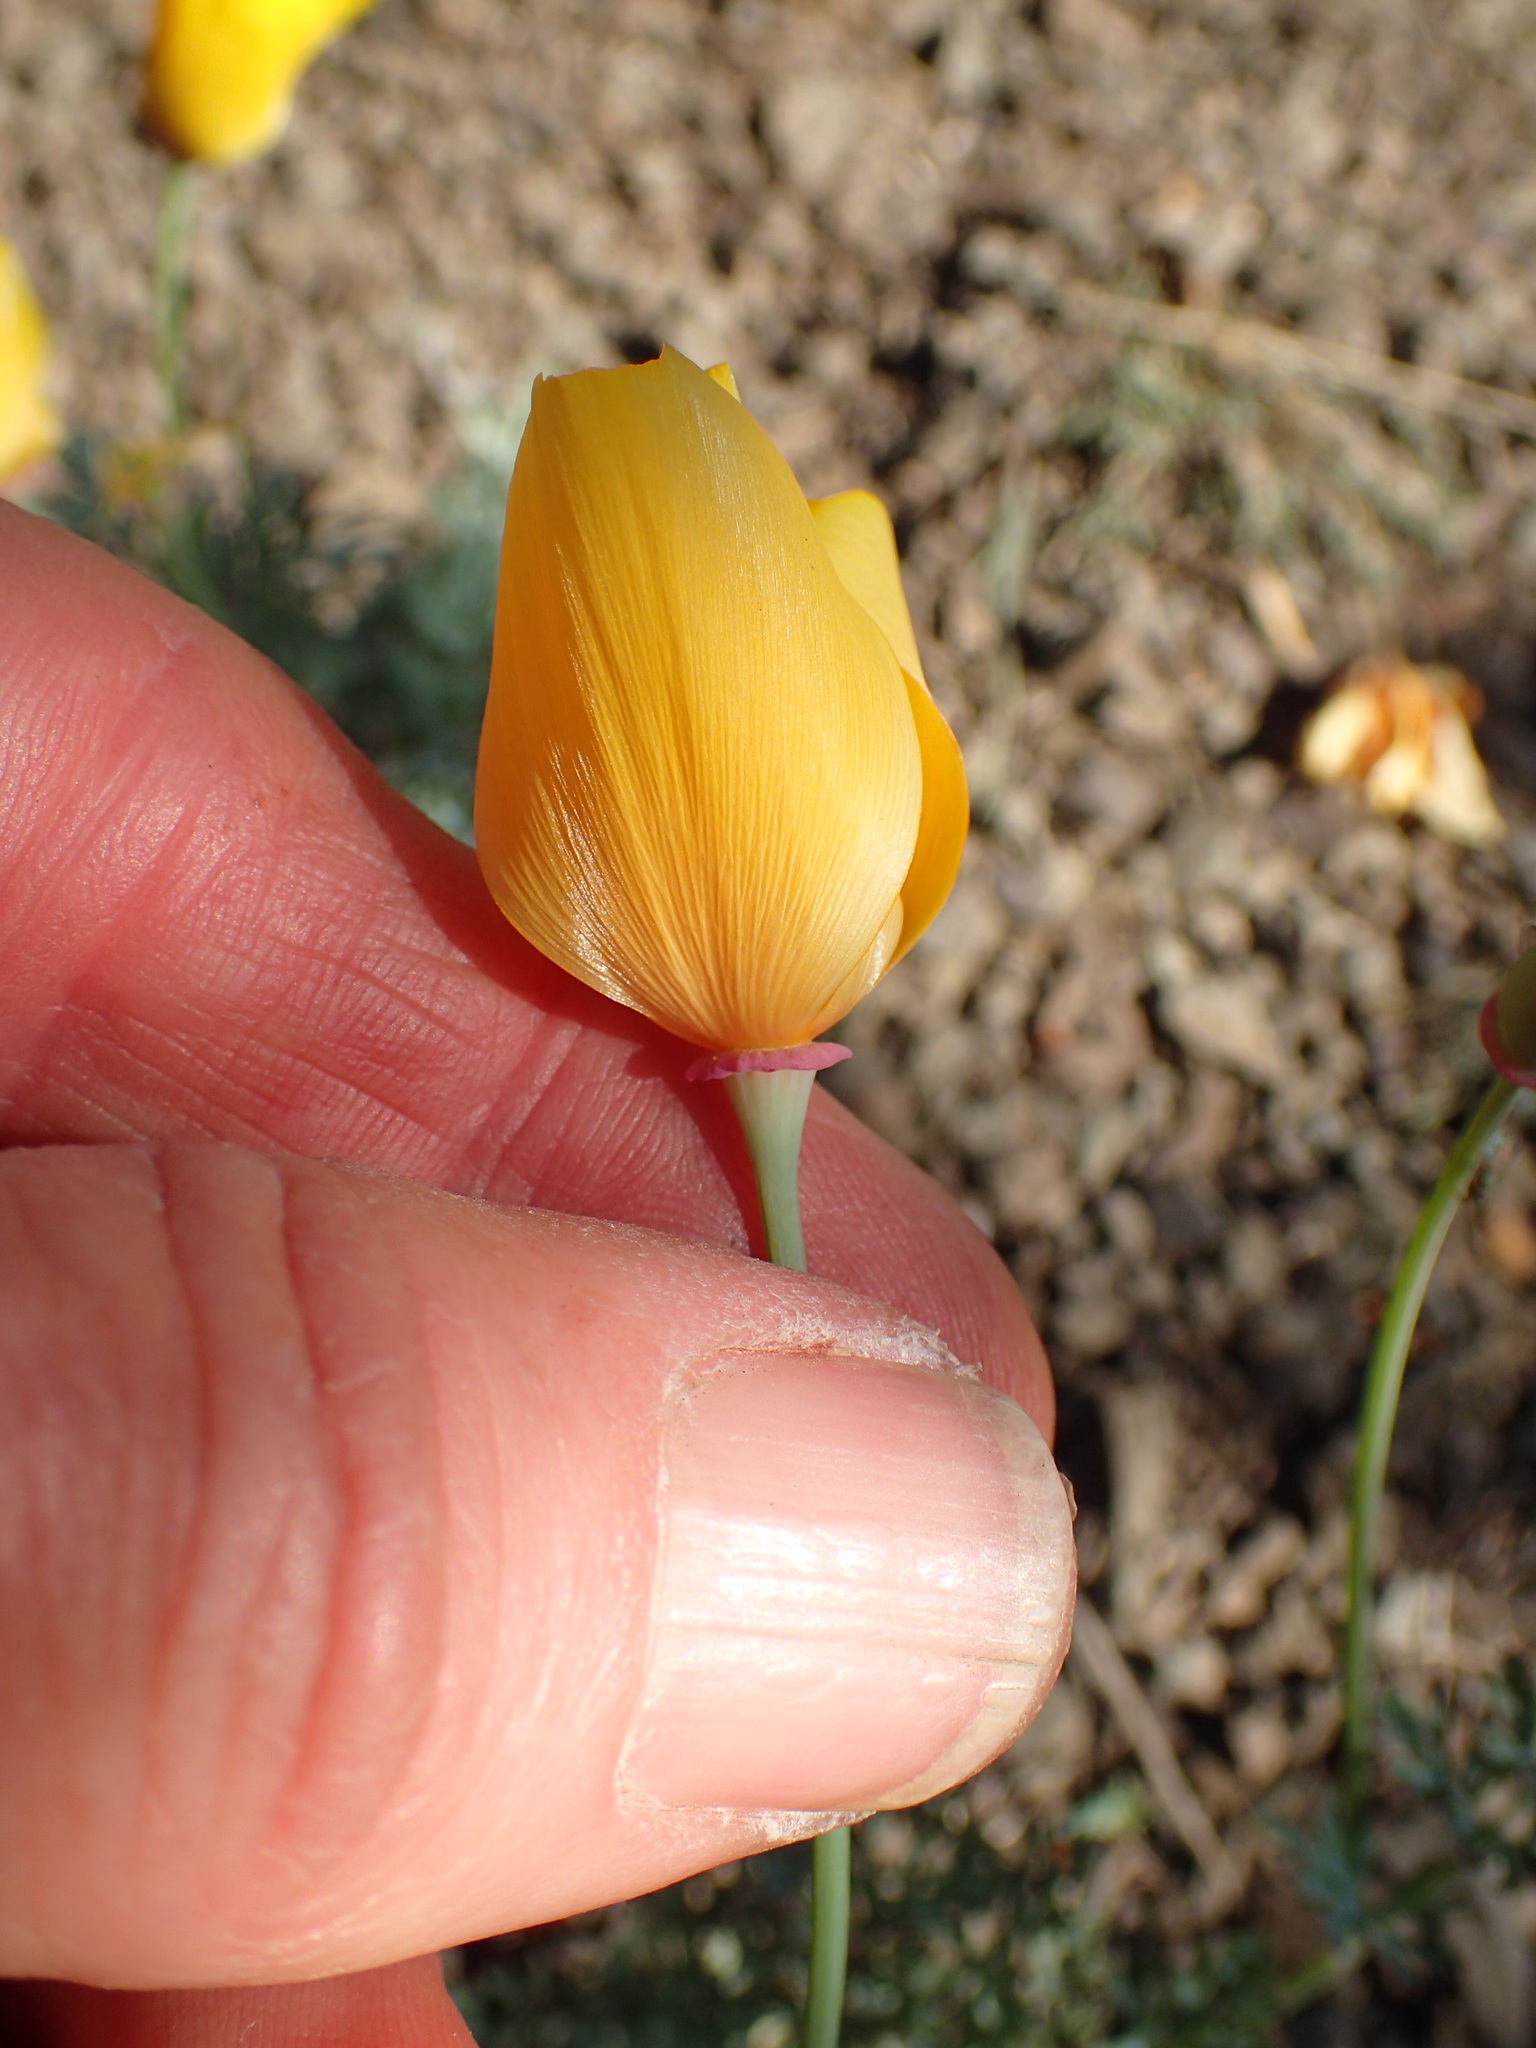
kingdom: Plantae
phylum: Tracheophyta
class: Magnoliopsida
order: Ranunculales
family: Papaveraceae
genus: Eschscholzia
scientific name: Eschscholzia californica
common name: California poppy
